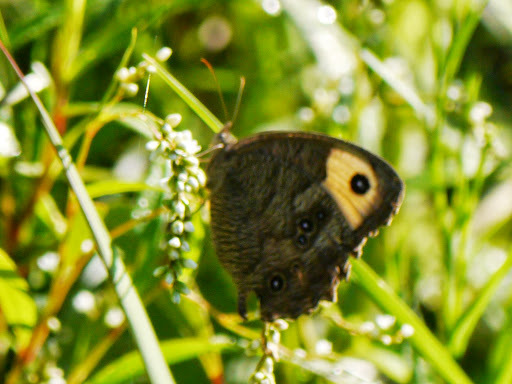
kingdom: Animalia
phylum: Arthropoda
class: Insecta
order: Lepidoptera
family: Nymphalidae
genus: Cercyonis
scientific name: Cercyonis pegala
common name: Common wood-nymph
